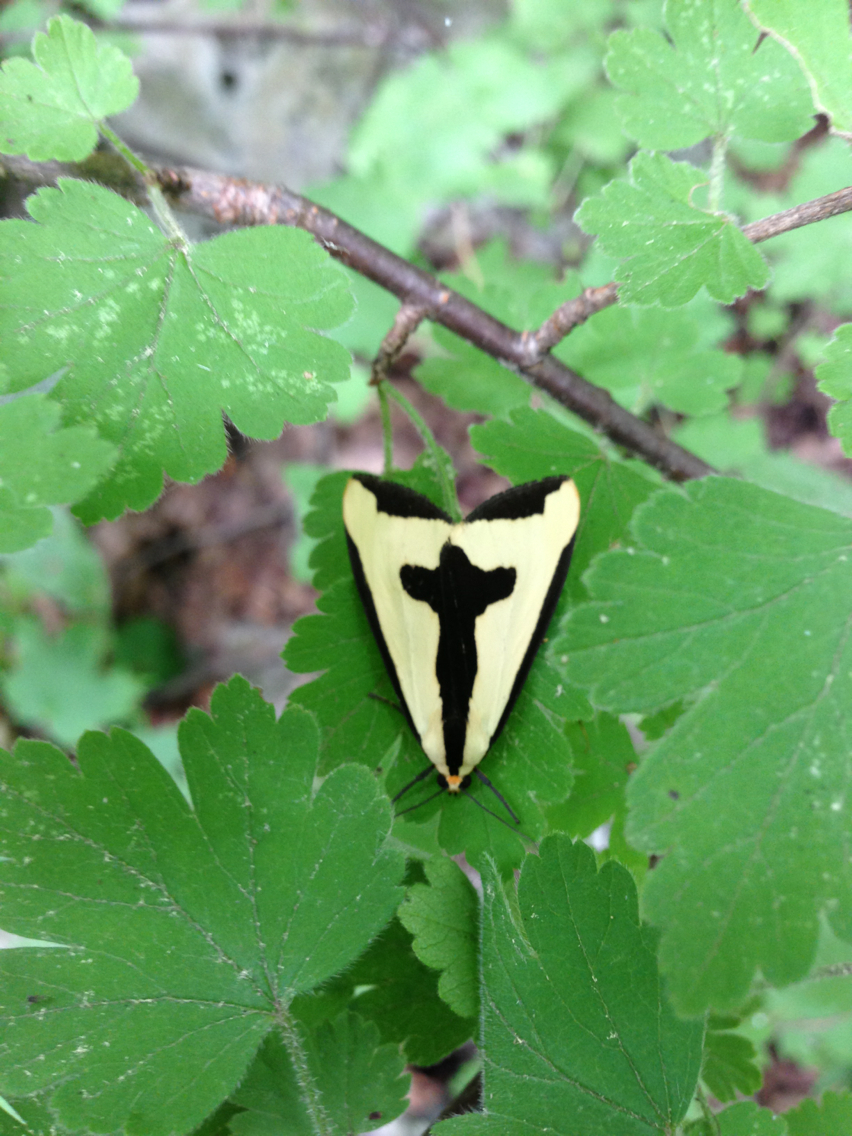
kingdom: Animalia
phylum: Arthropoda
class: Insecta
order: Lepidoptera
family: Erebidae
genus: Haploa
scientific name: Haploa clymene
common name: Clymene moth
